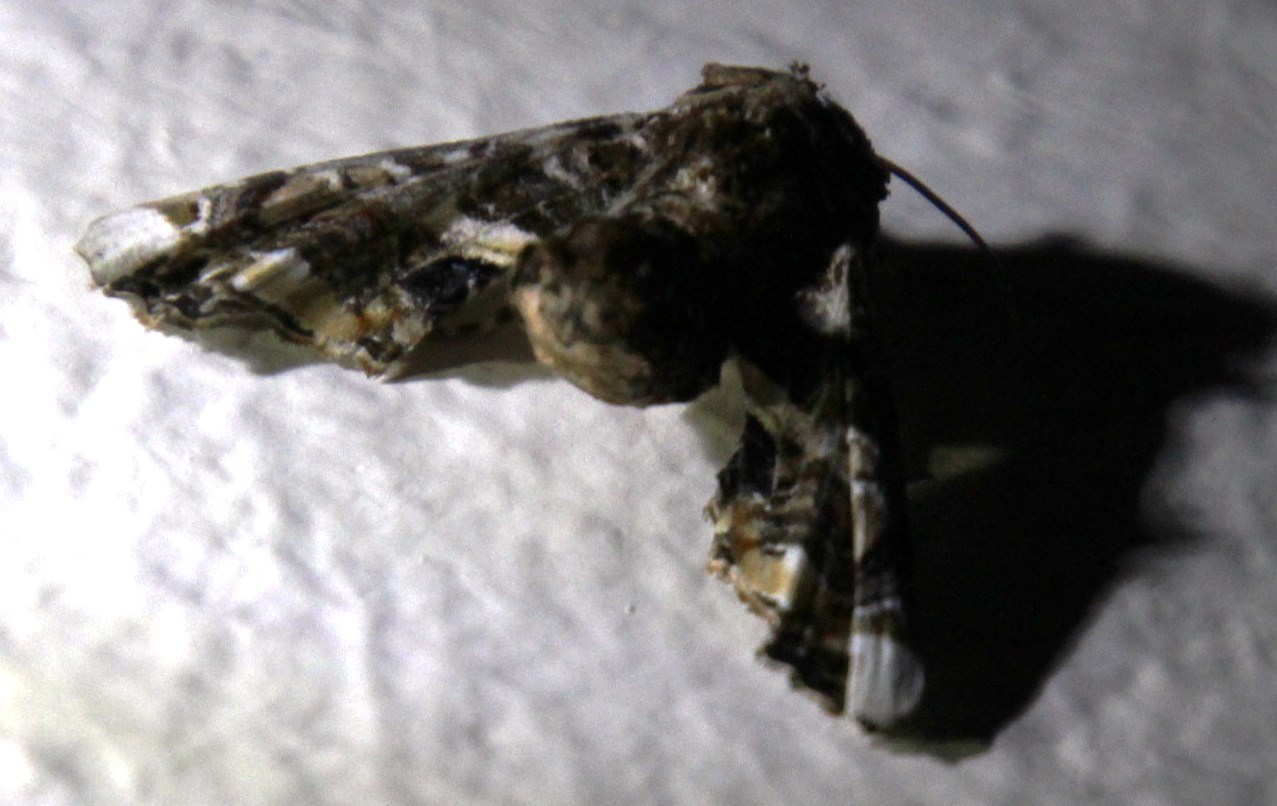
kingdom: Animalia
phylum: Arthropoda
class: Insecta
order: Lepidoptera
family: Euteliidae
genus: Eutelia
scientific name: Eutelia adulatrix
